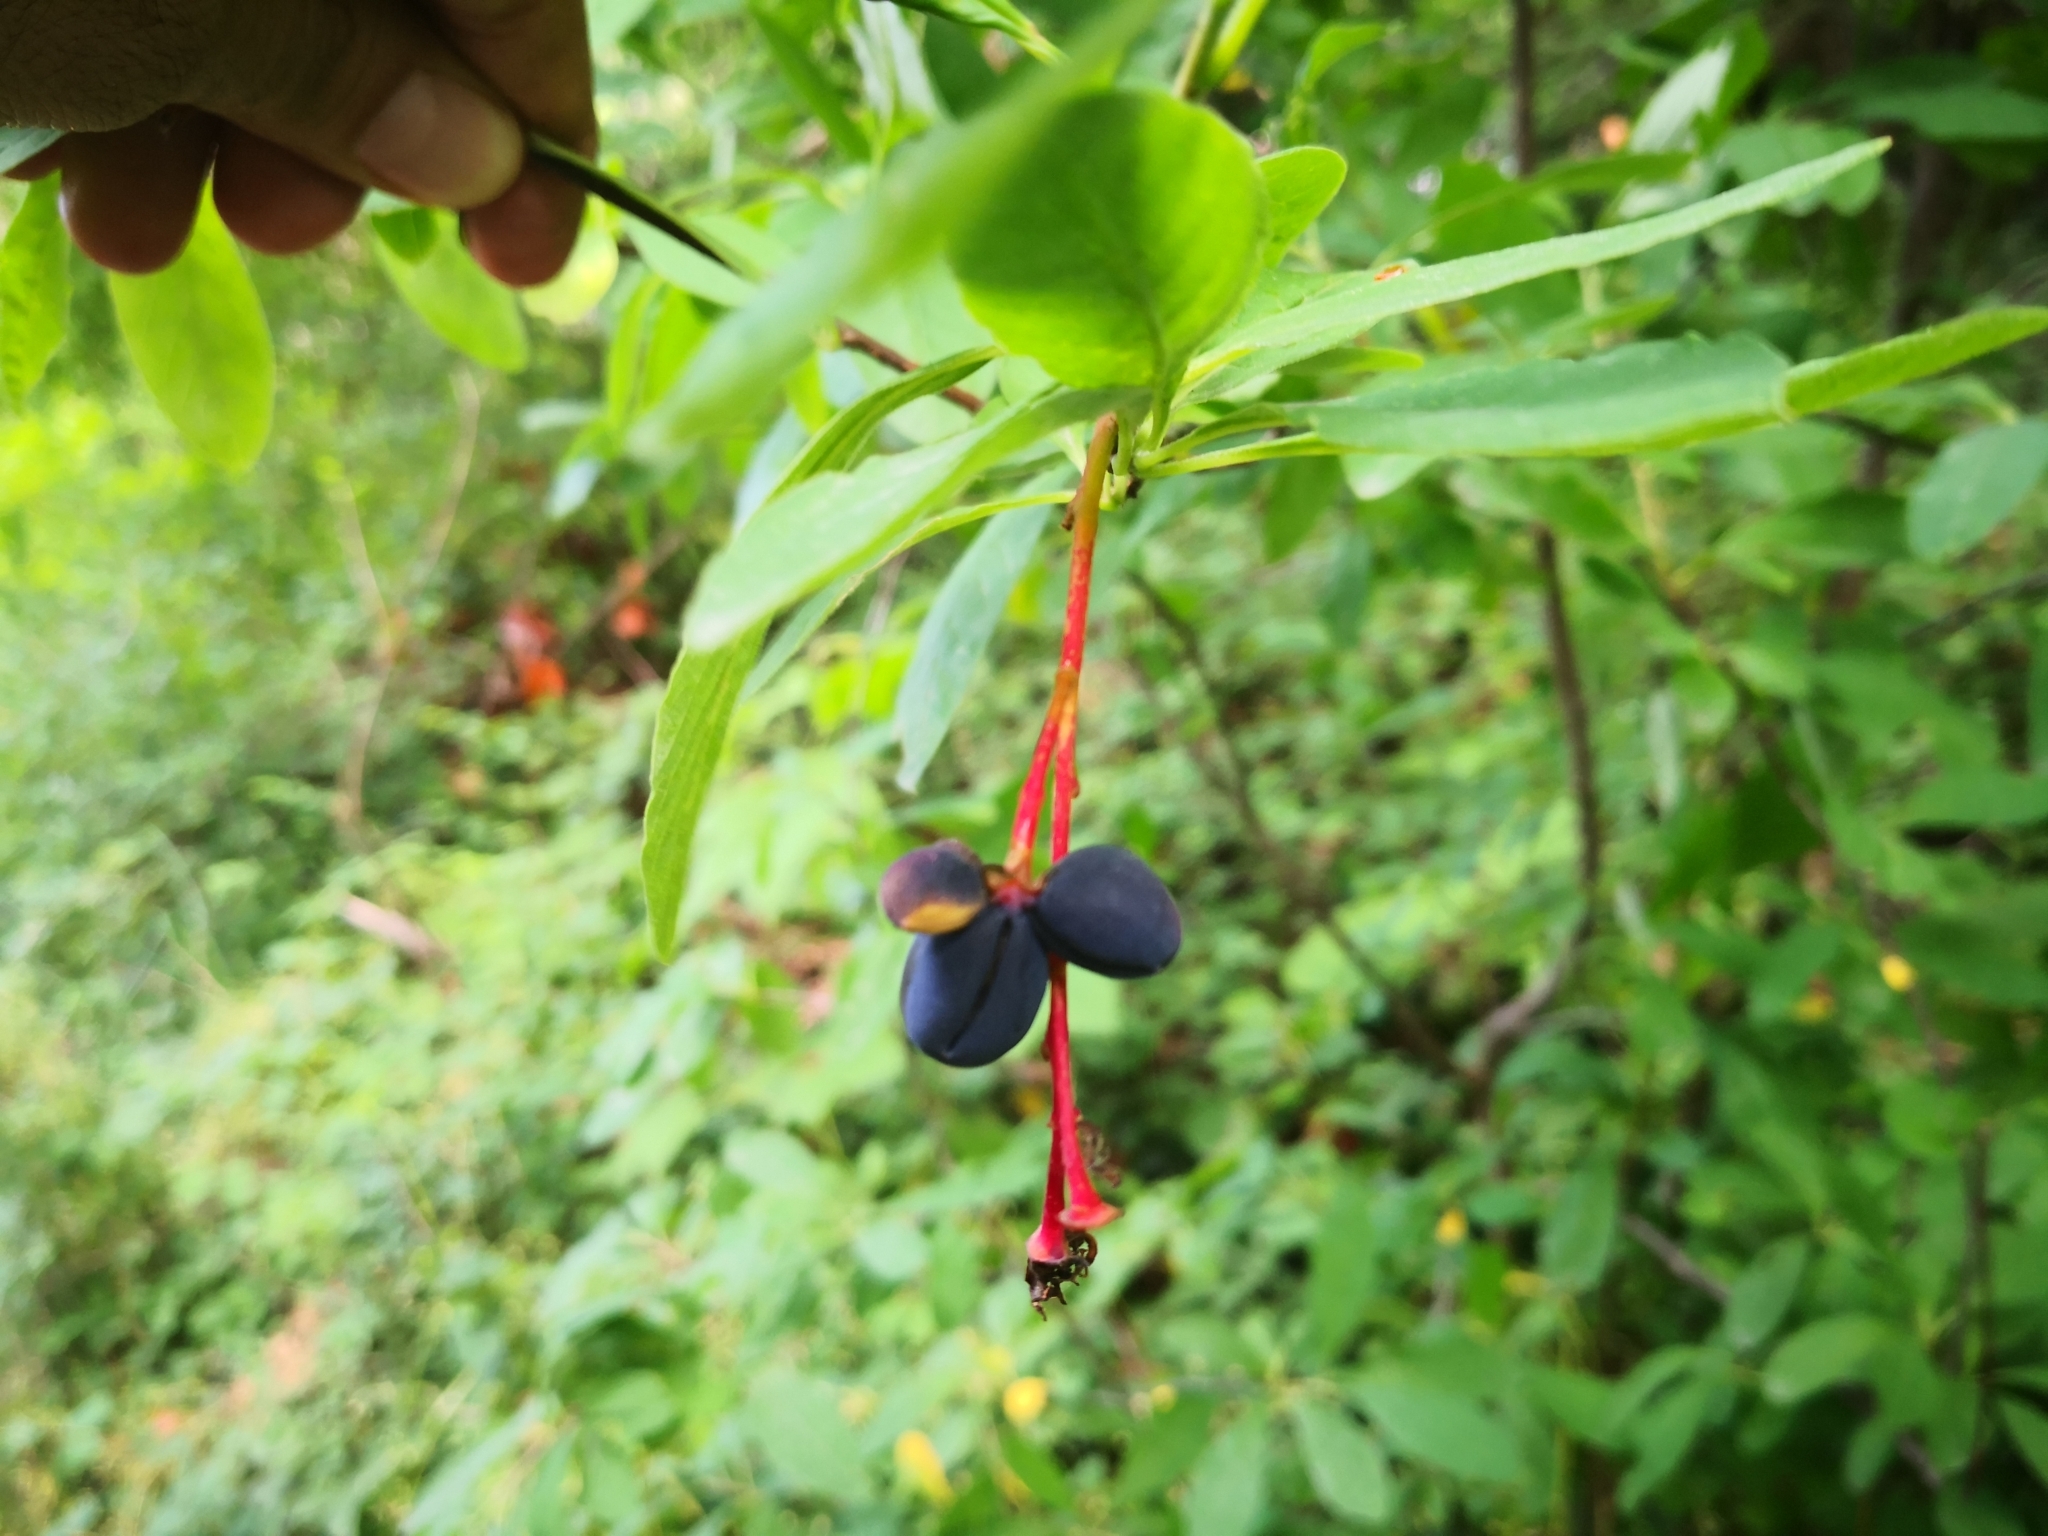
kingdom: Plantae
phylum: Tracheophyta
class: Magnoliopsida
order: Rosales
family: Rosaceae
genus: Oemleria
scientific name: Oemleria cerasiformis
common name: Osoberry
